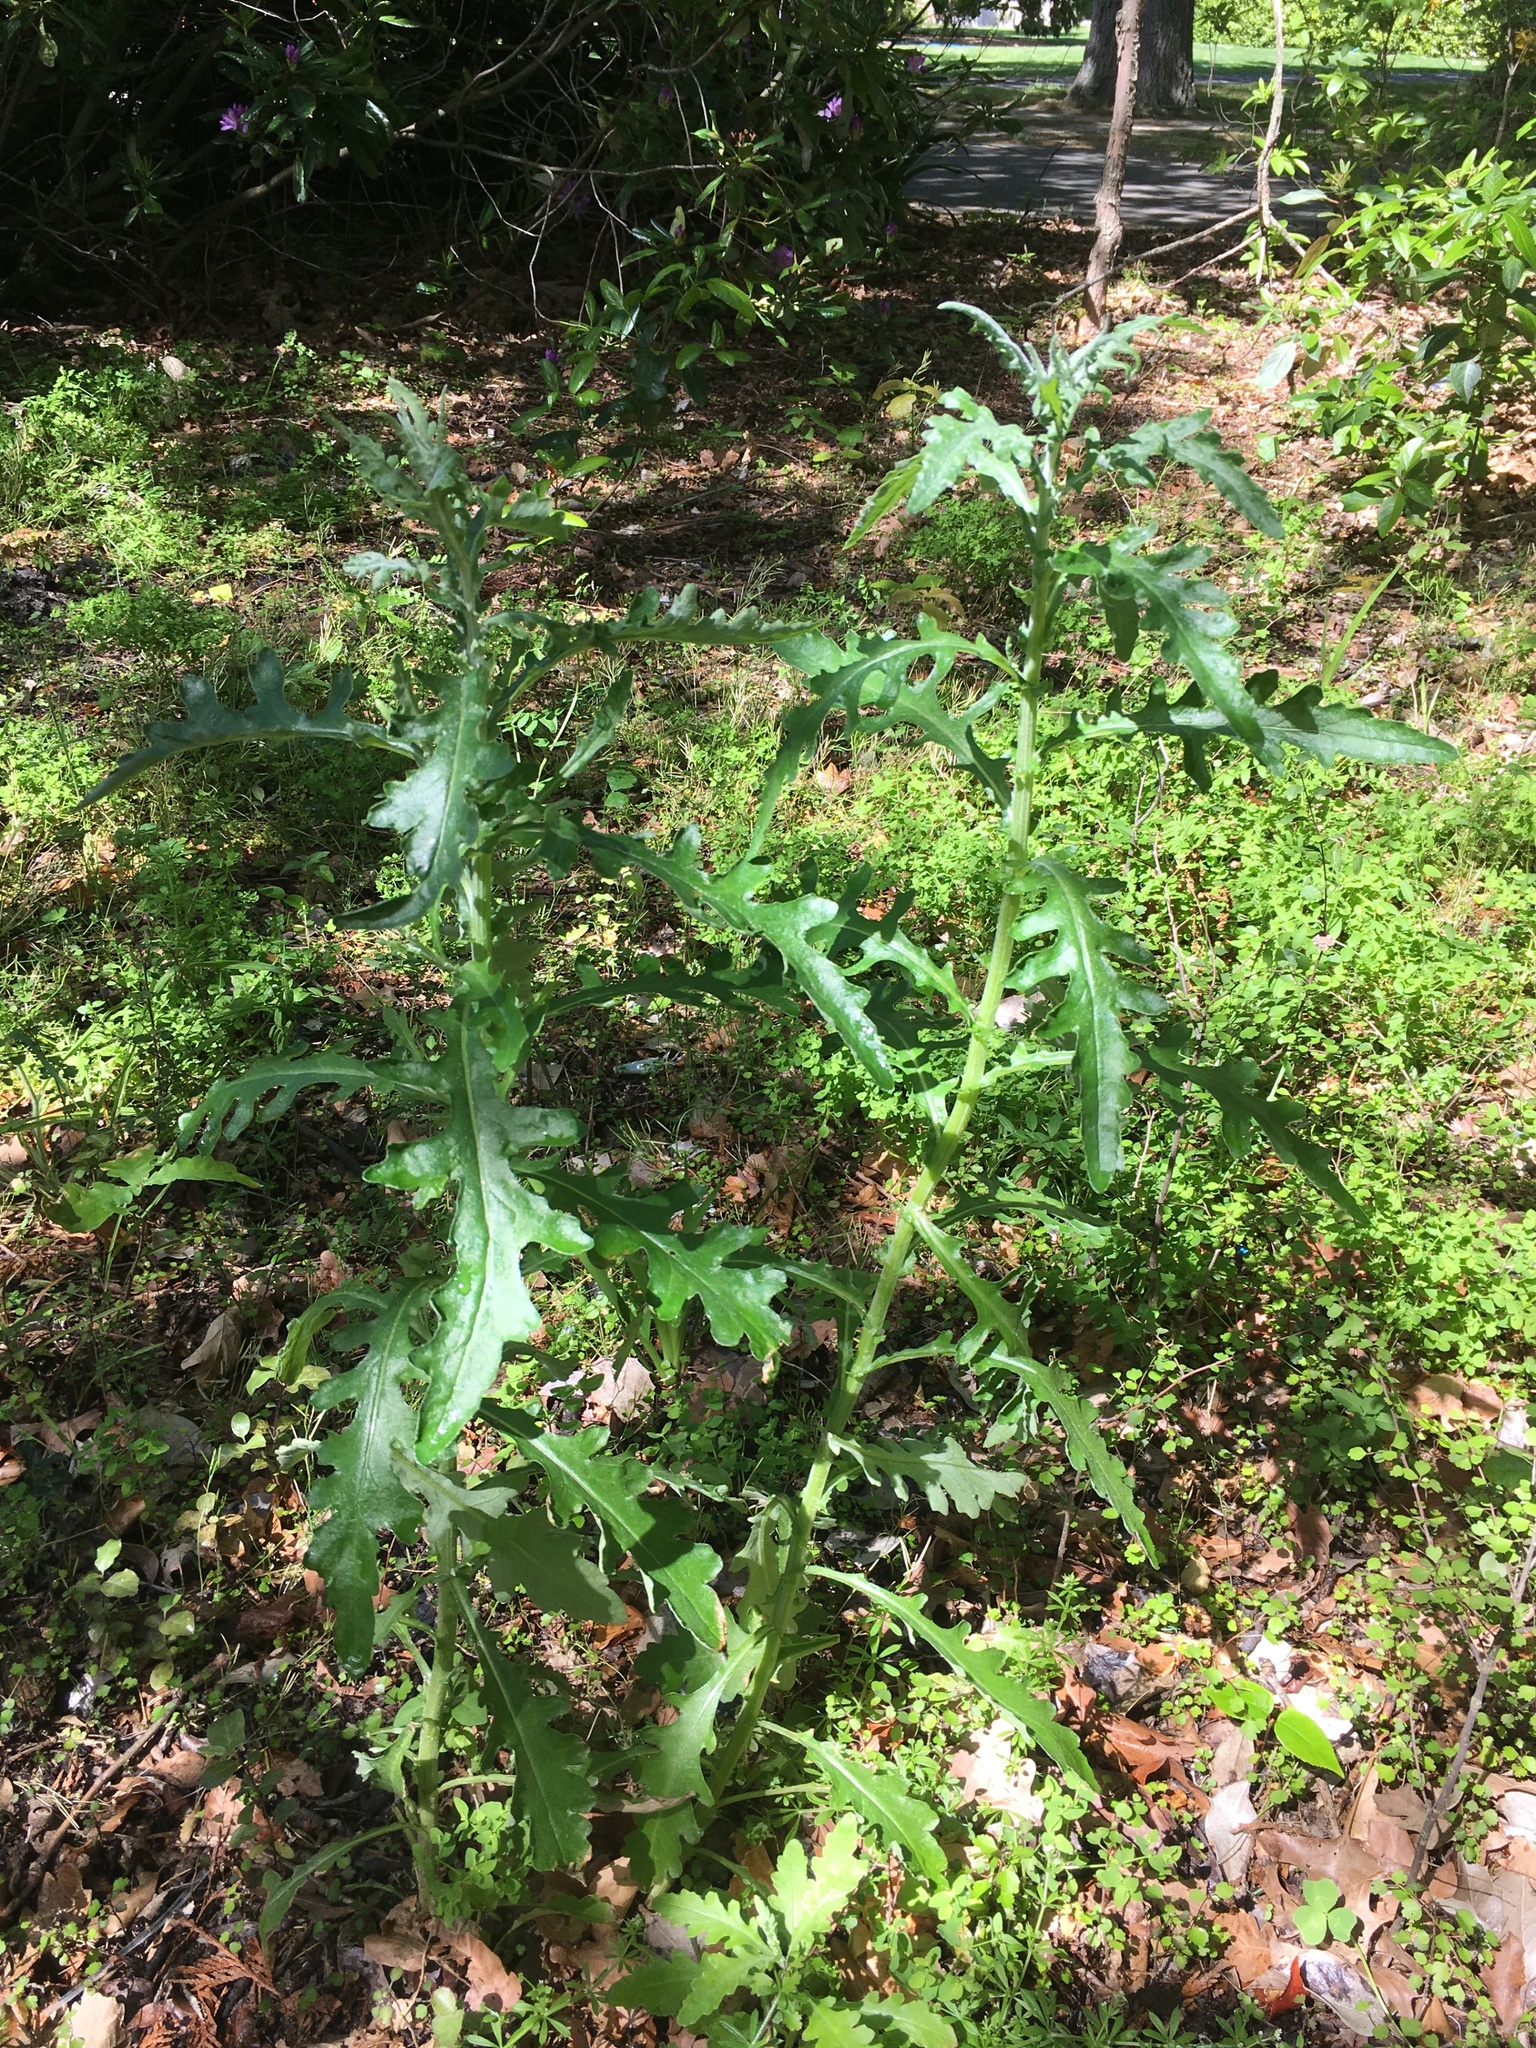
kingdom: Plantae
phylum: Tracheophyta
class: Magnoliopsida
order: Asterales
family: Asteraceae
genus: Senecio
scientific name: Senecio glomeratus
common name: Cutleaf burnweed
